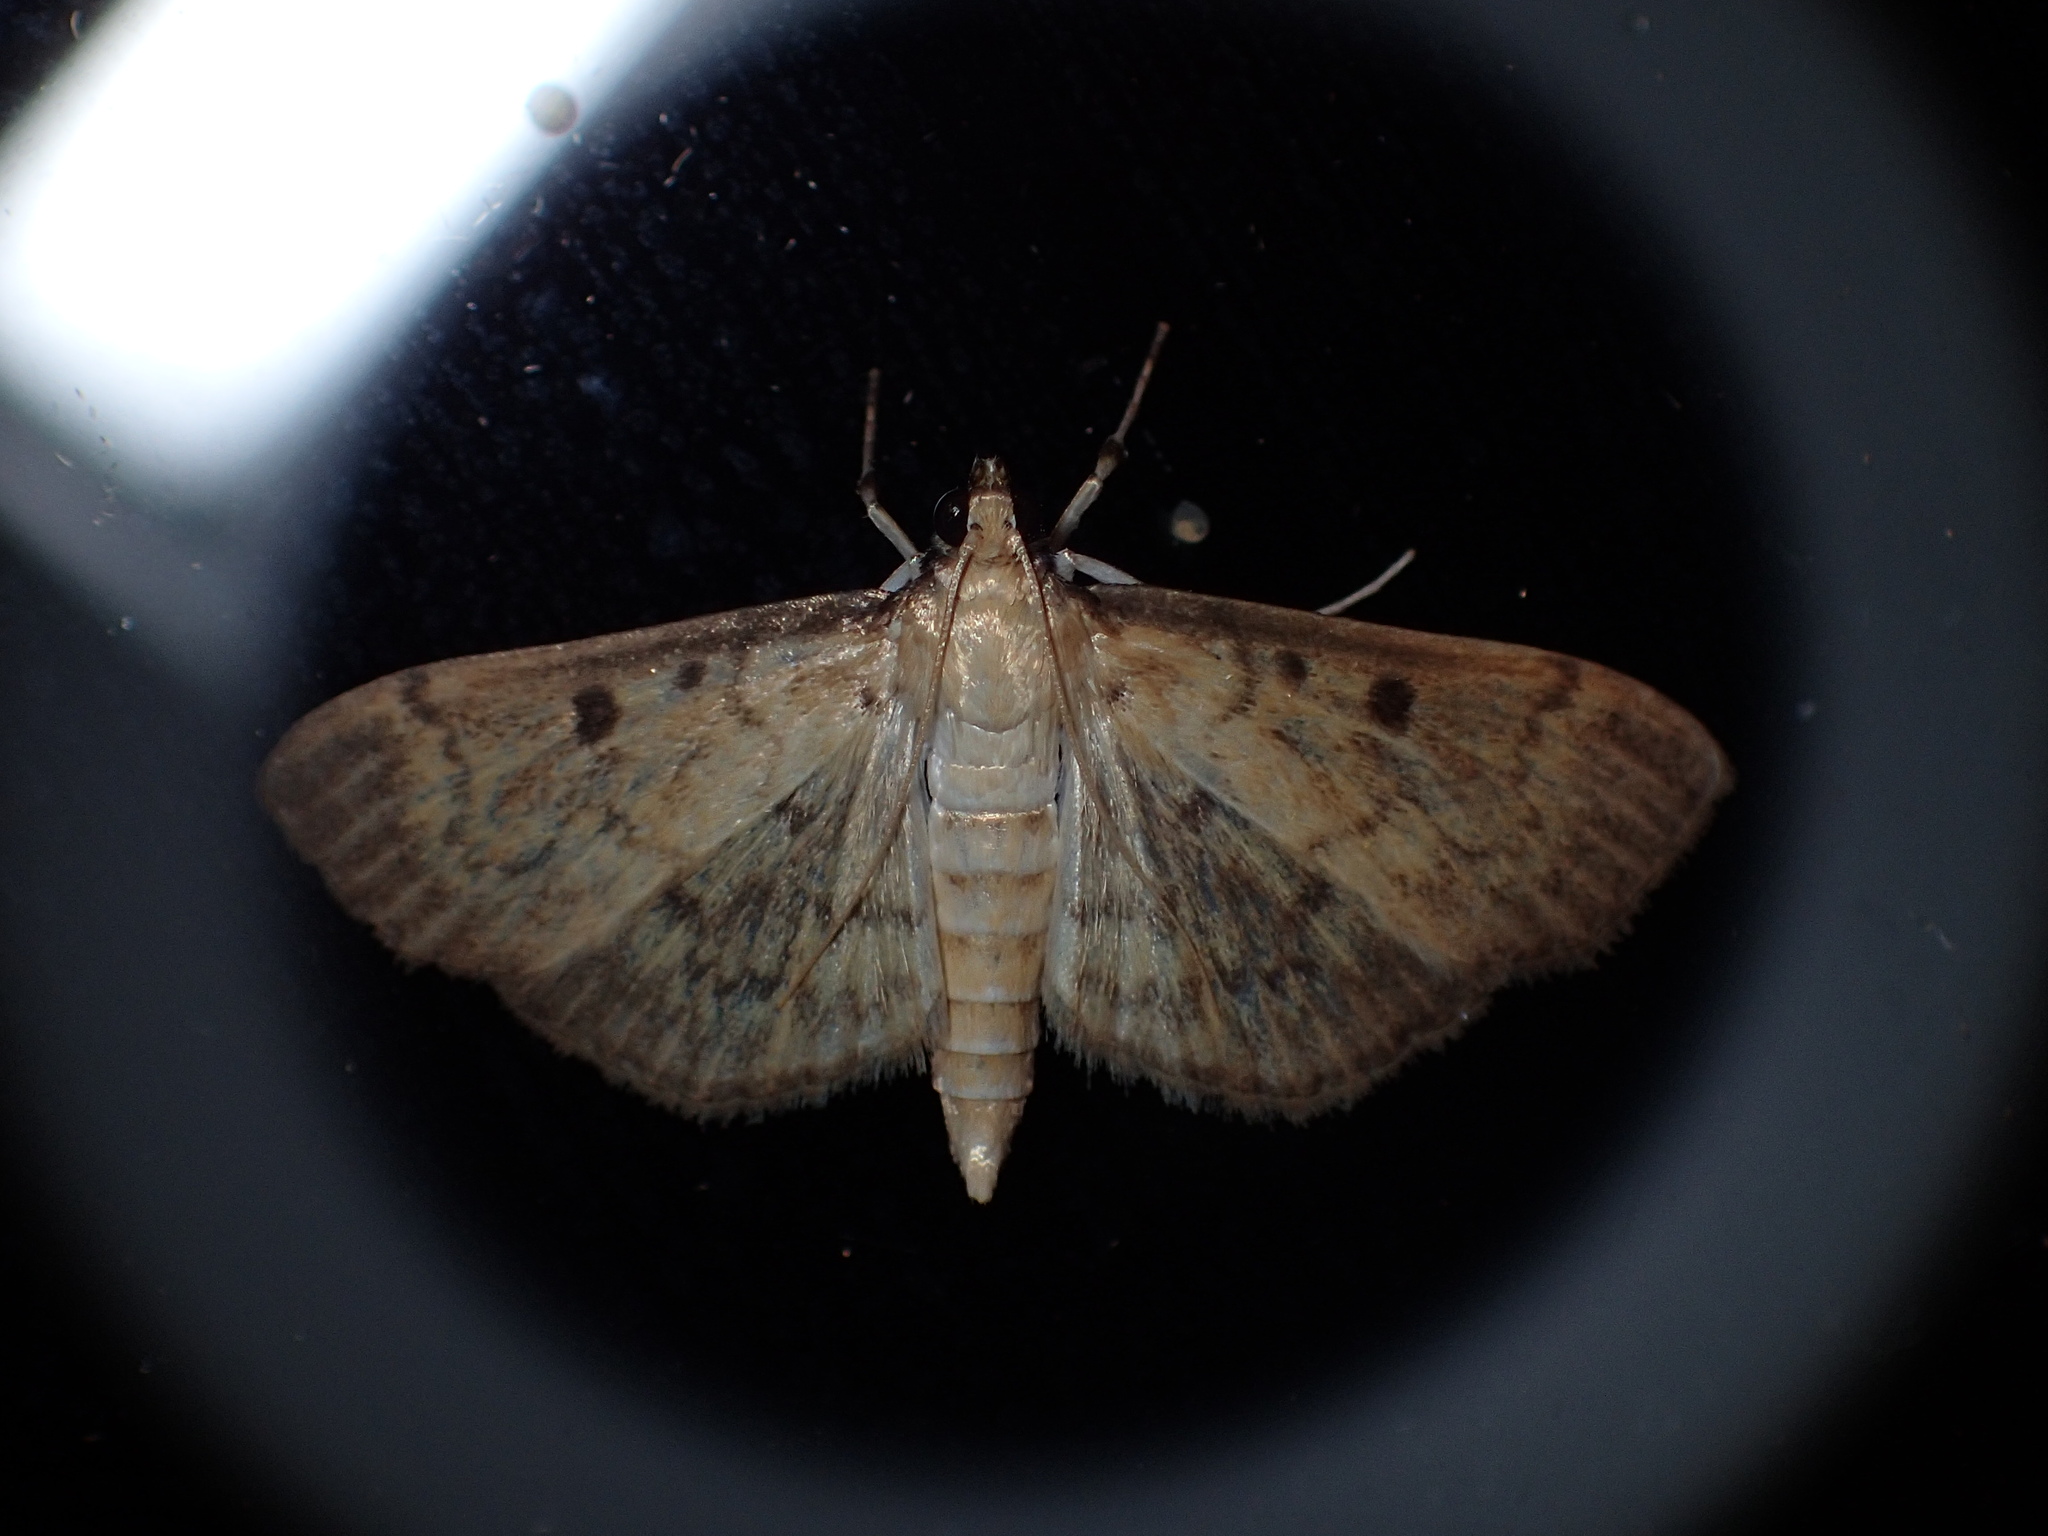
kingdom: Animalia
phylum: Arthropoda
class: Insecta
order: Lepidoptera
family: Crambidae
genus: Herpetogramma
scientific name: Herpetogramma aeglealis
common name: Serpentine webworm moth
